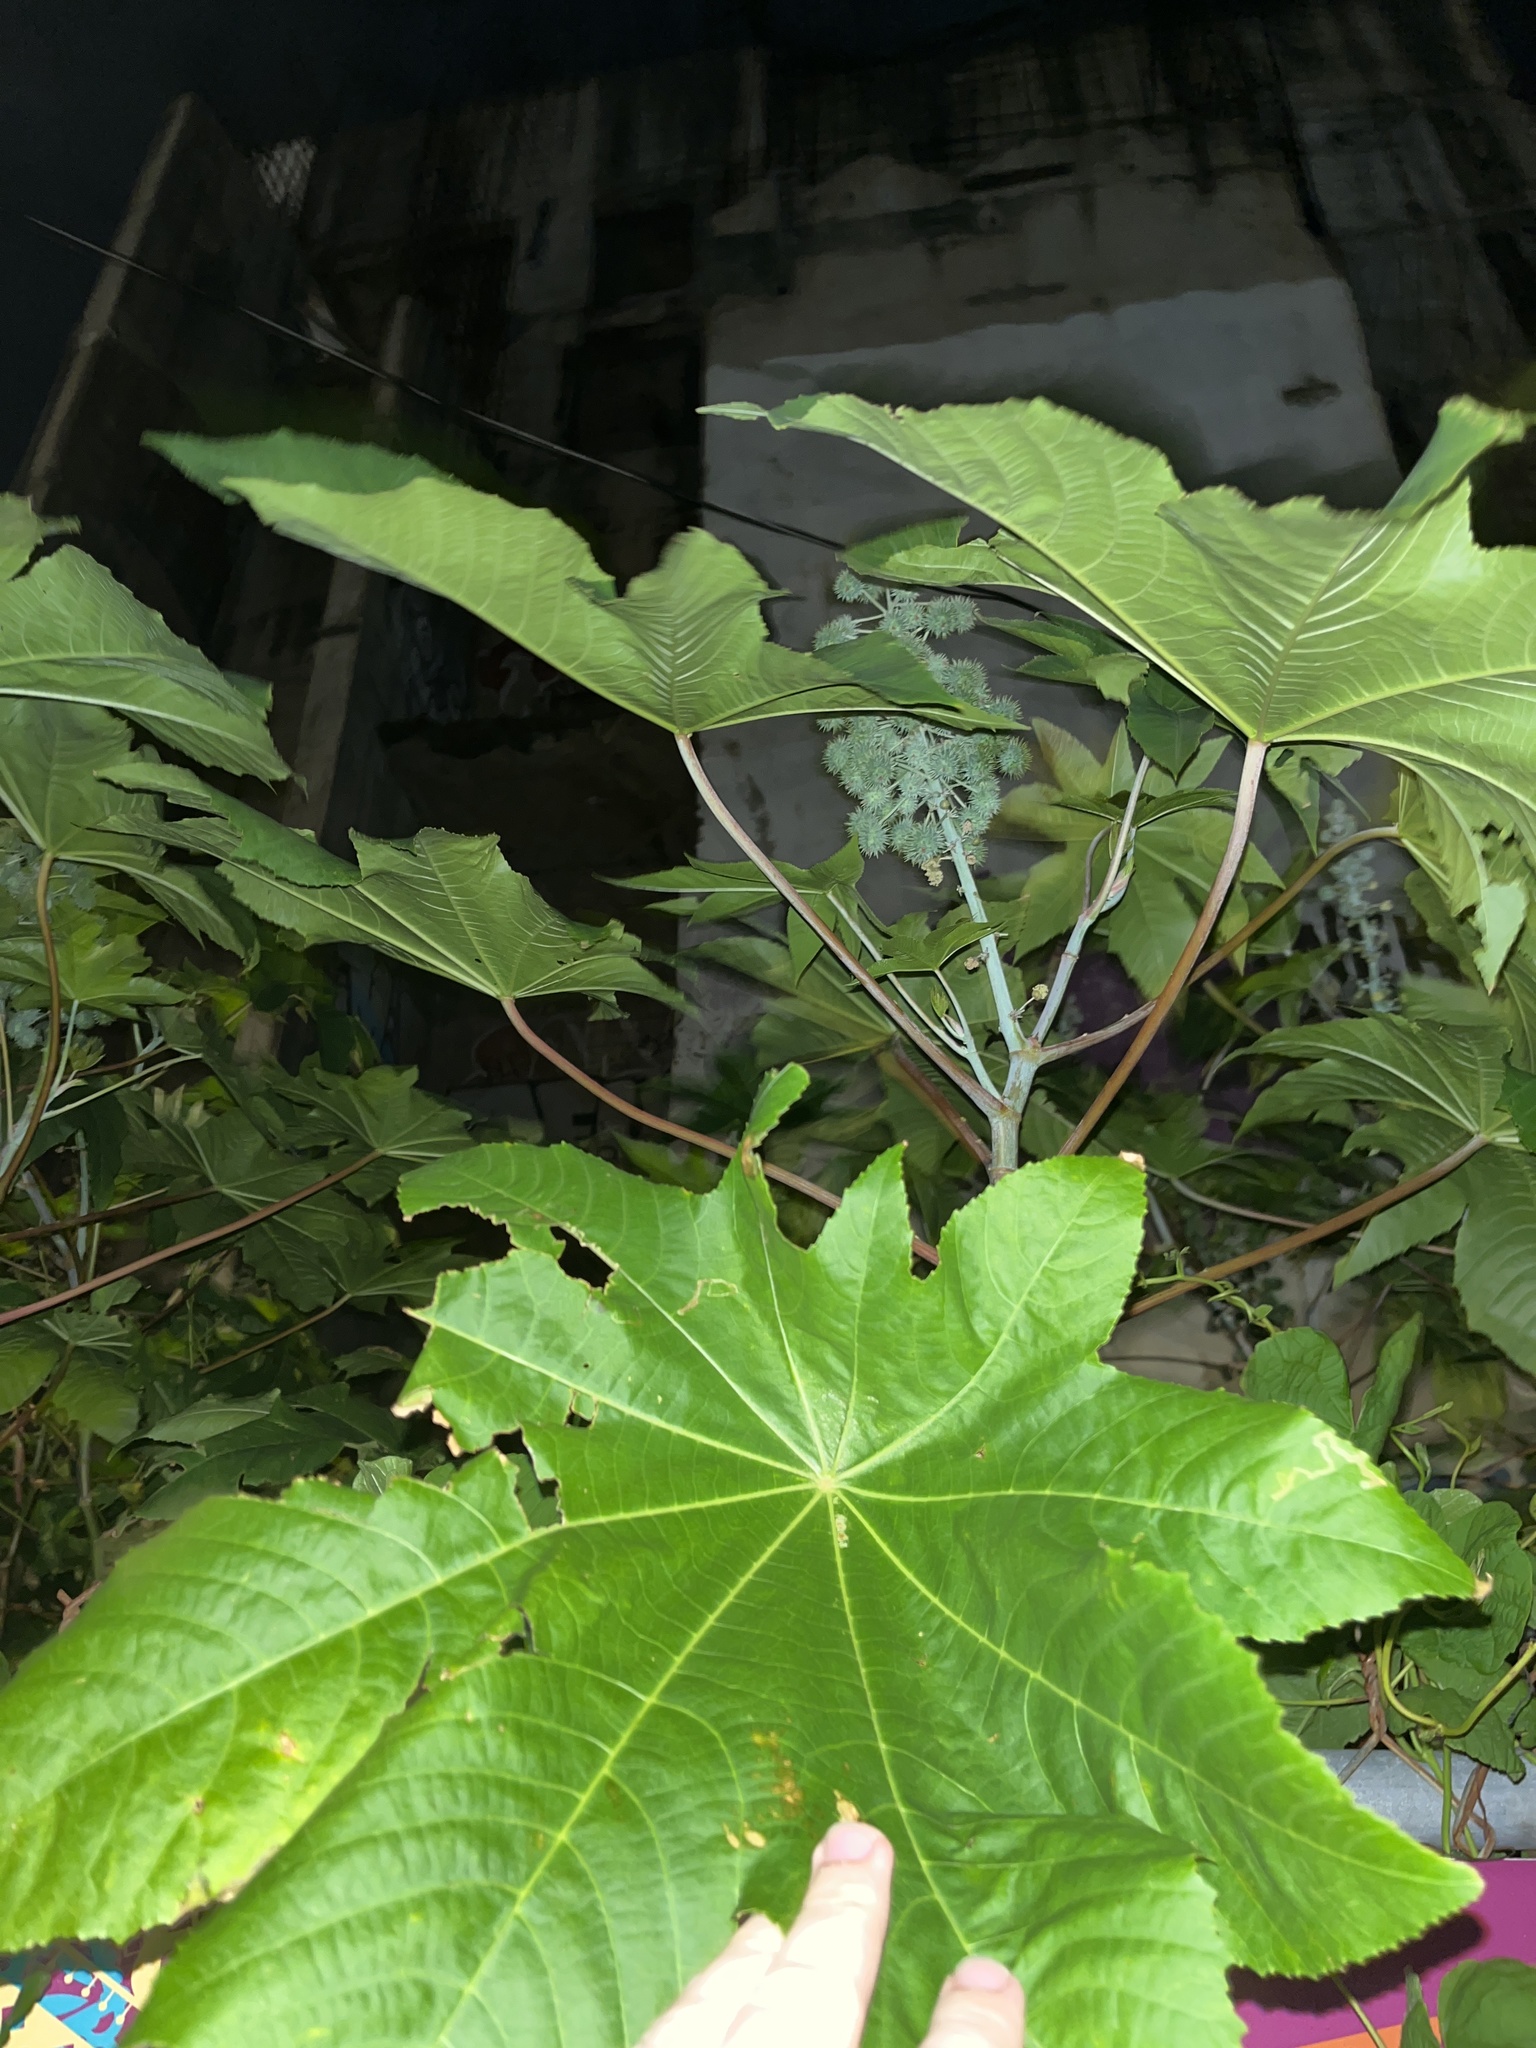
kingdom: Plantae
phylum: Tracheophyta
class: Magnoliopsida
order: Malpighiales
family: Euphorbiaceae
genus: Ricinus
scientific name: Ricinus communis
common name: Castor-oil-plant
